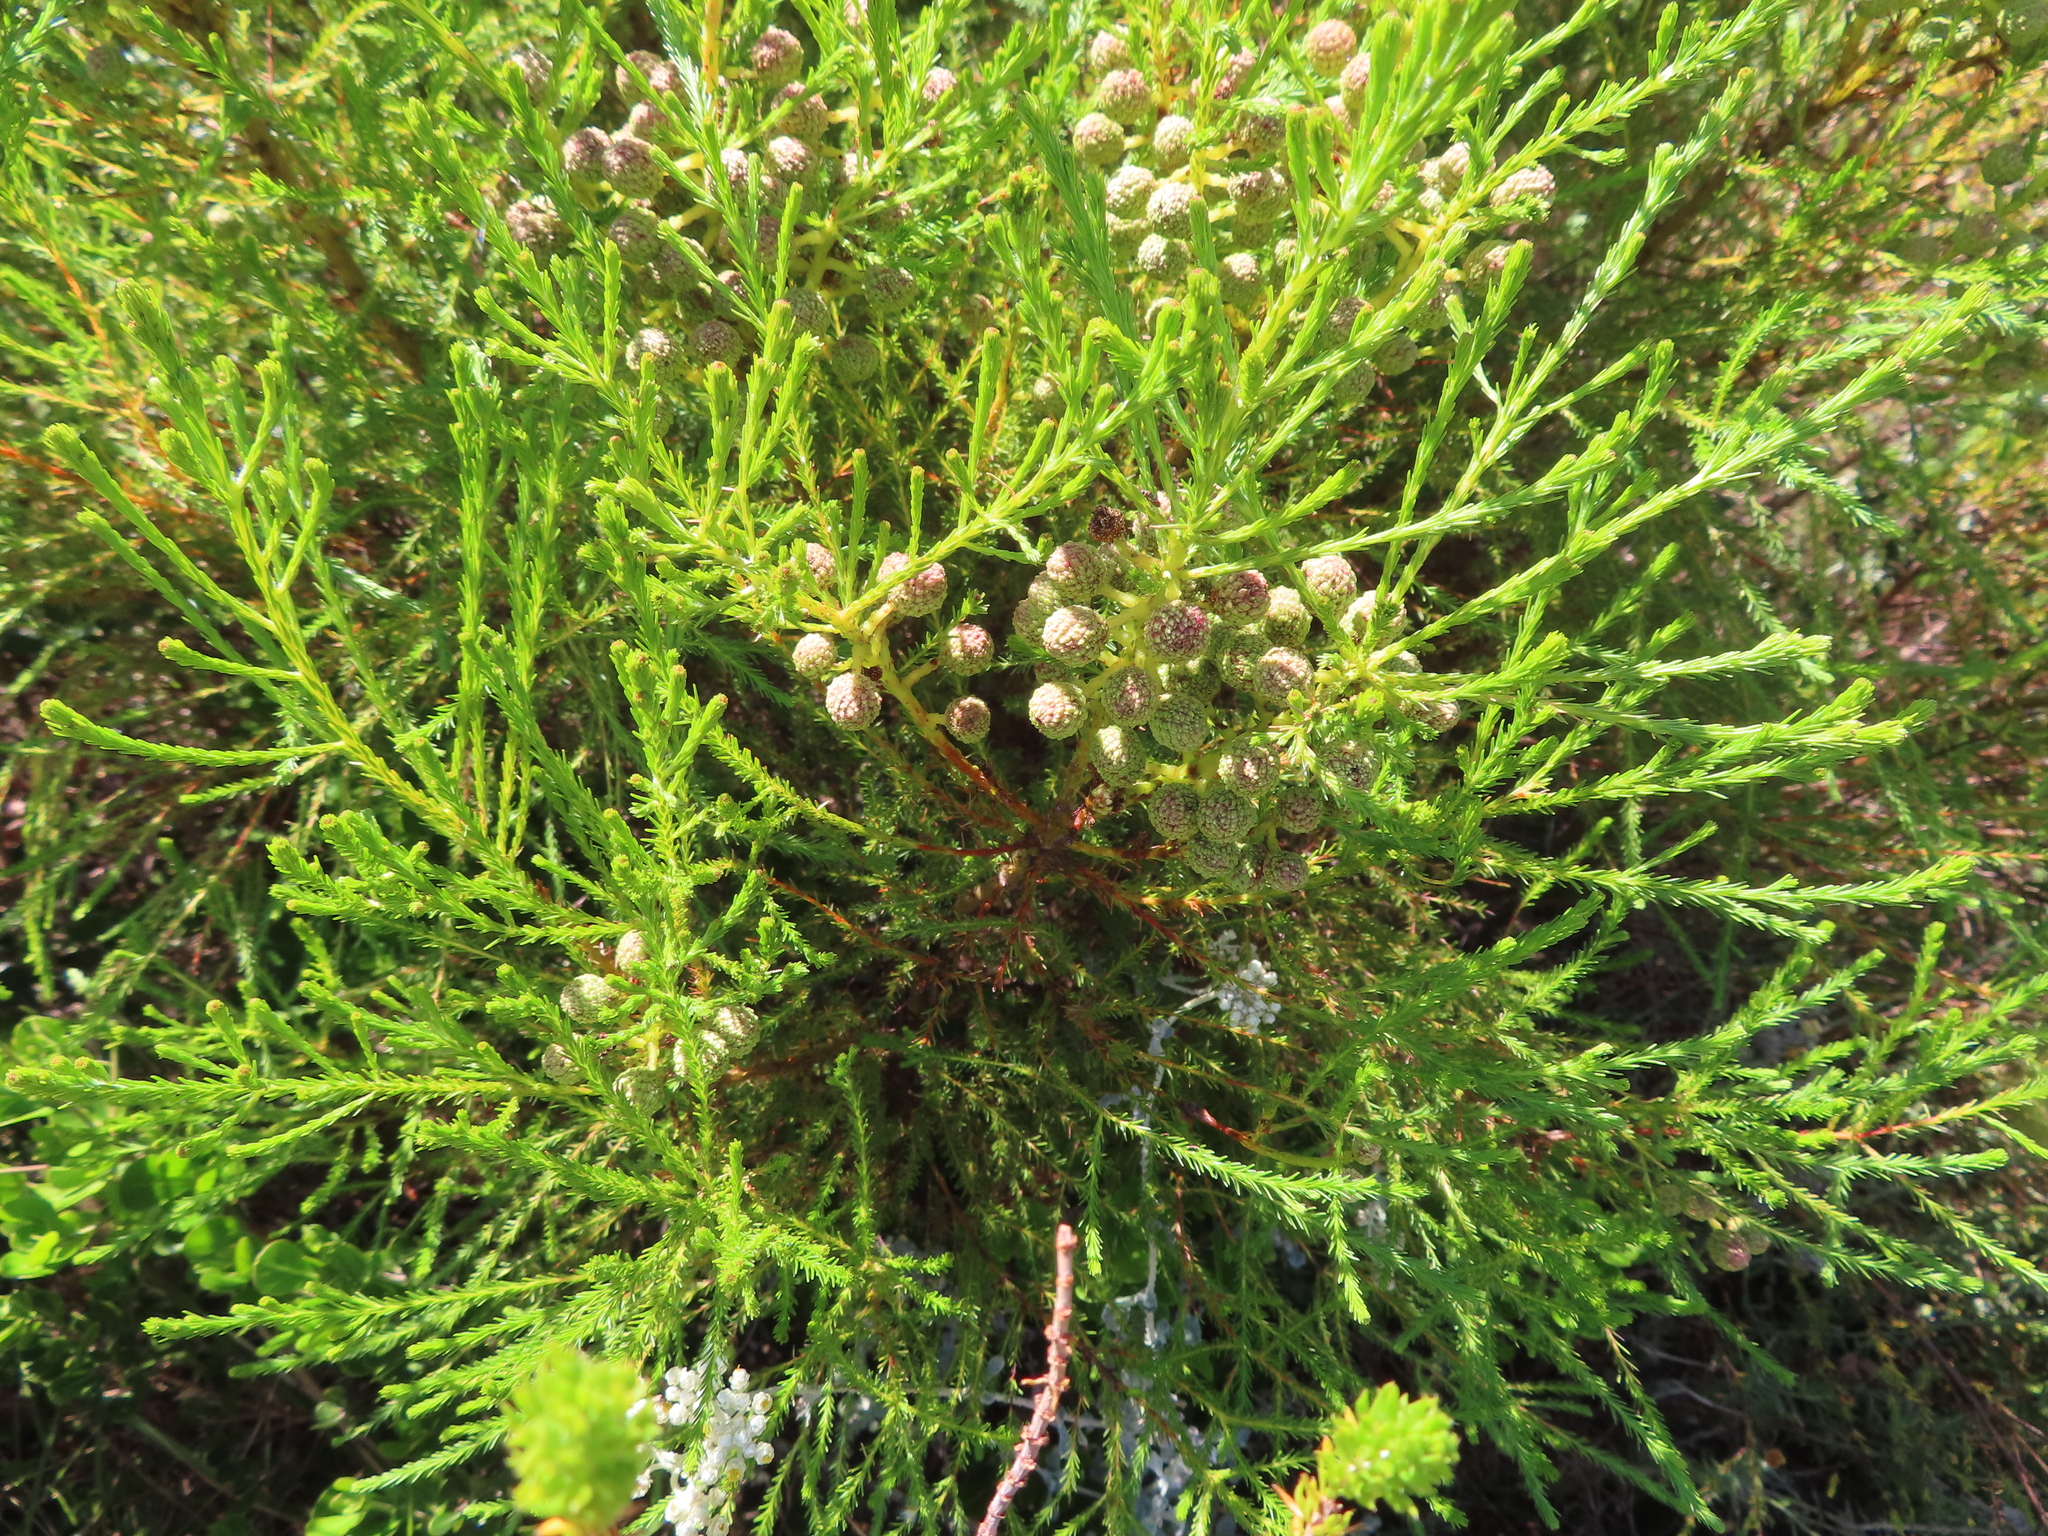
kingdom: Plantae
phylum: Tracheophyta
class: Magnoliopsida
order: Bruniales
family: Bruniaceae
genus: Berzelia
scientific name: Berzelia lanuginosa
